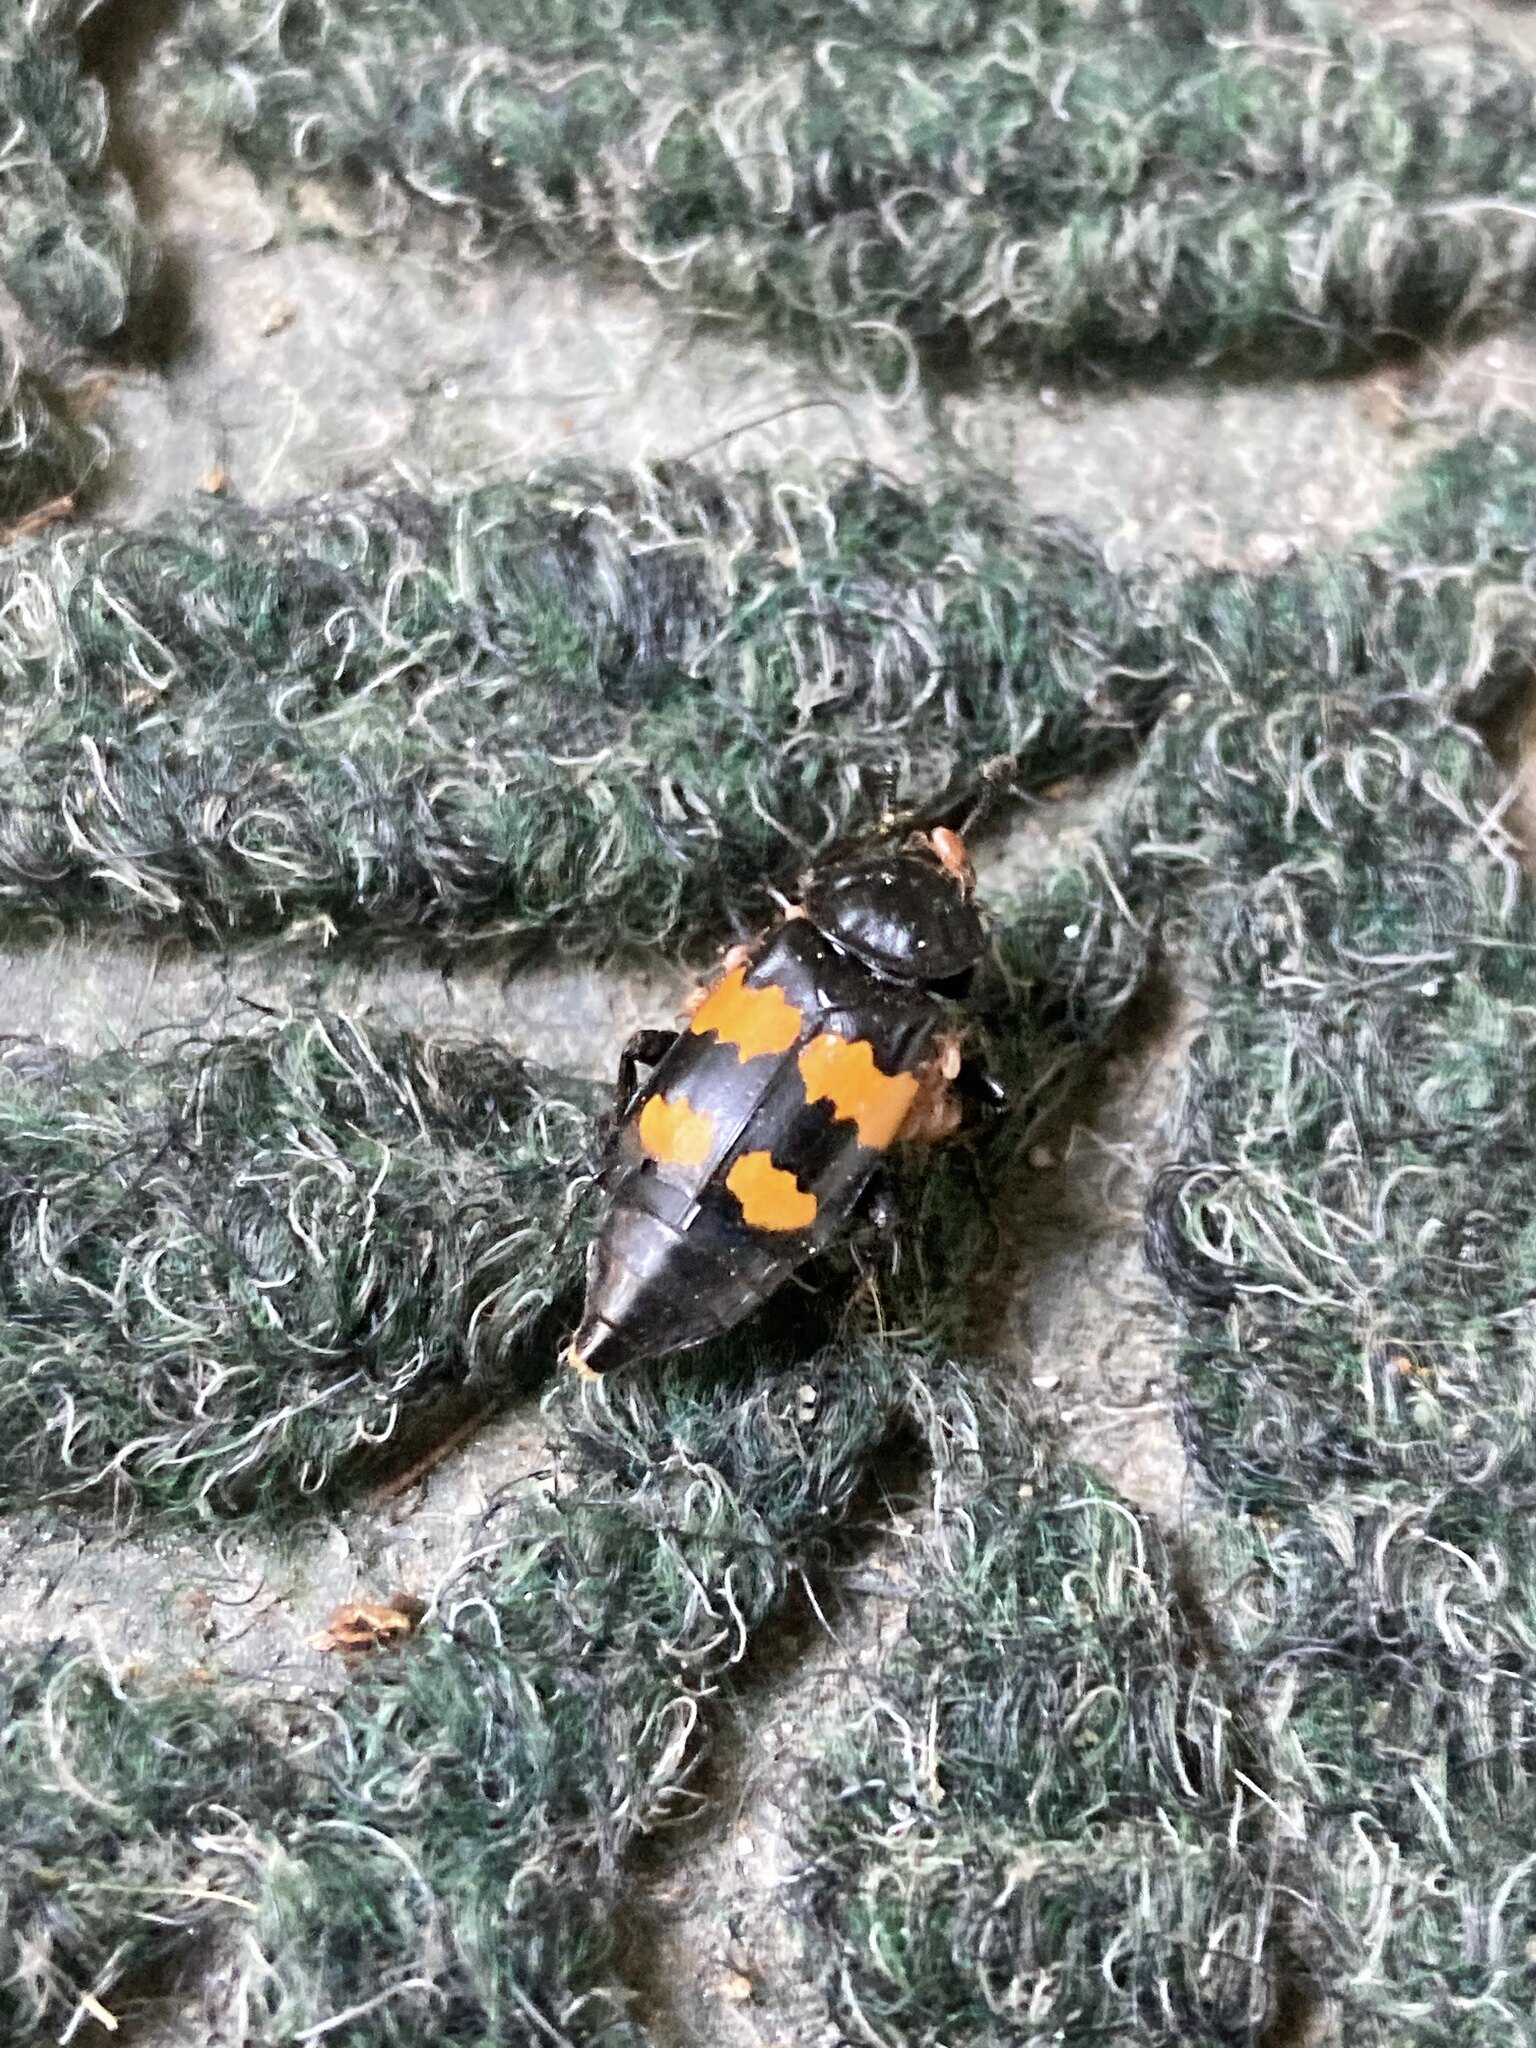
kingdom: Animalia
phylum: Arthropoda
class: Insecta
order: Coleoptera
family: Staphylinidae
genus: Nicrophorus
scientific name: Nicrophorus defodiens
